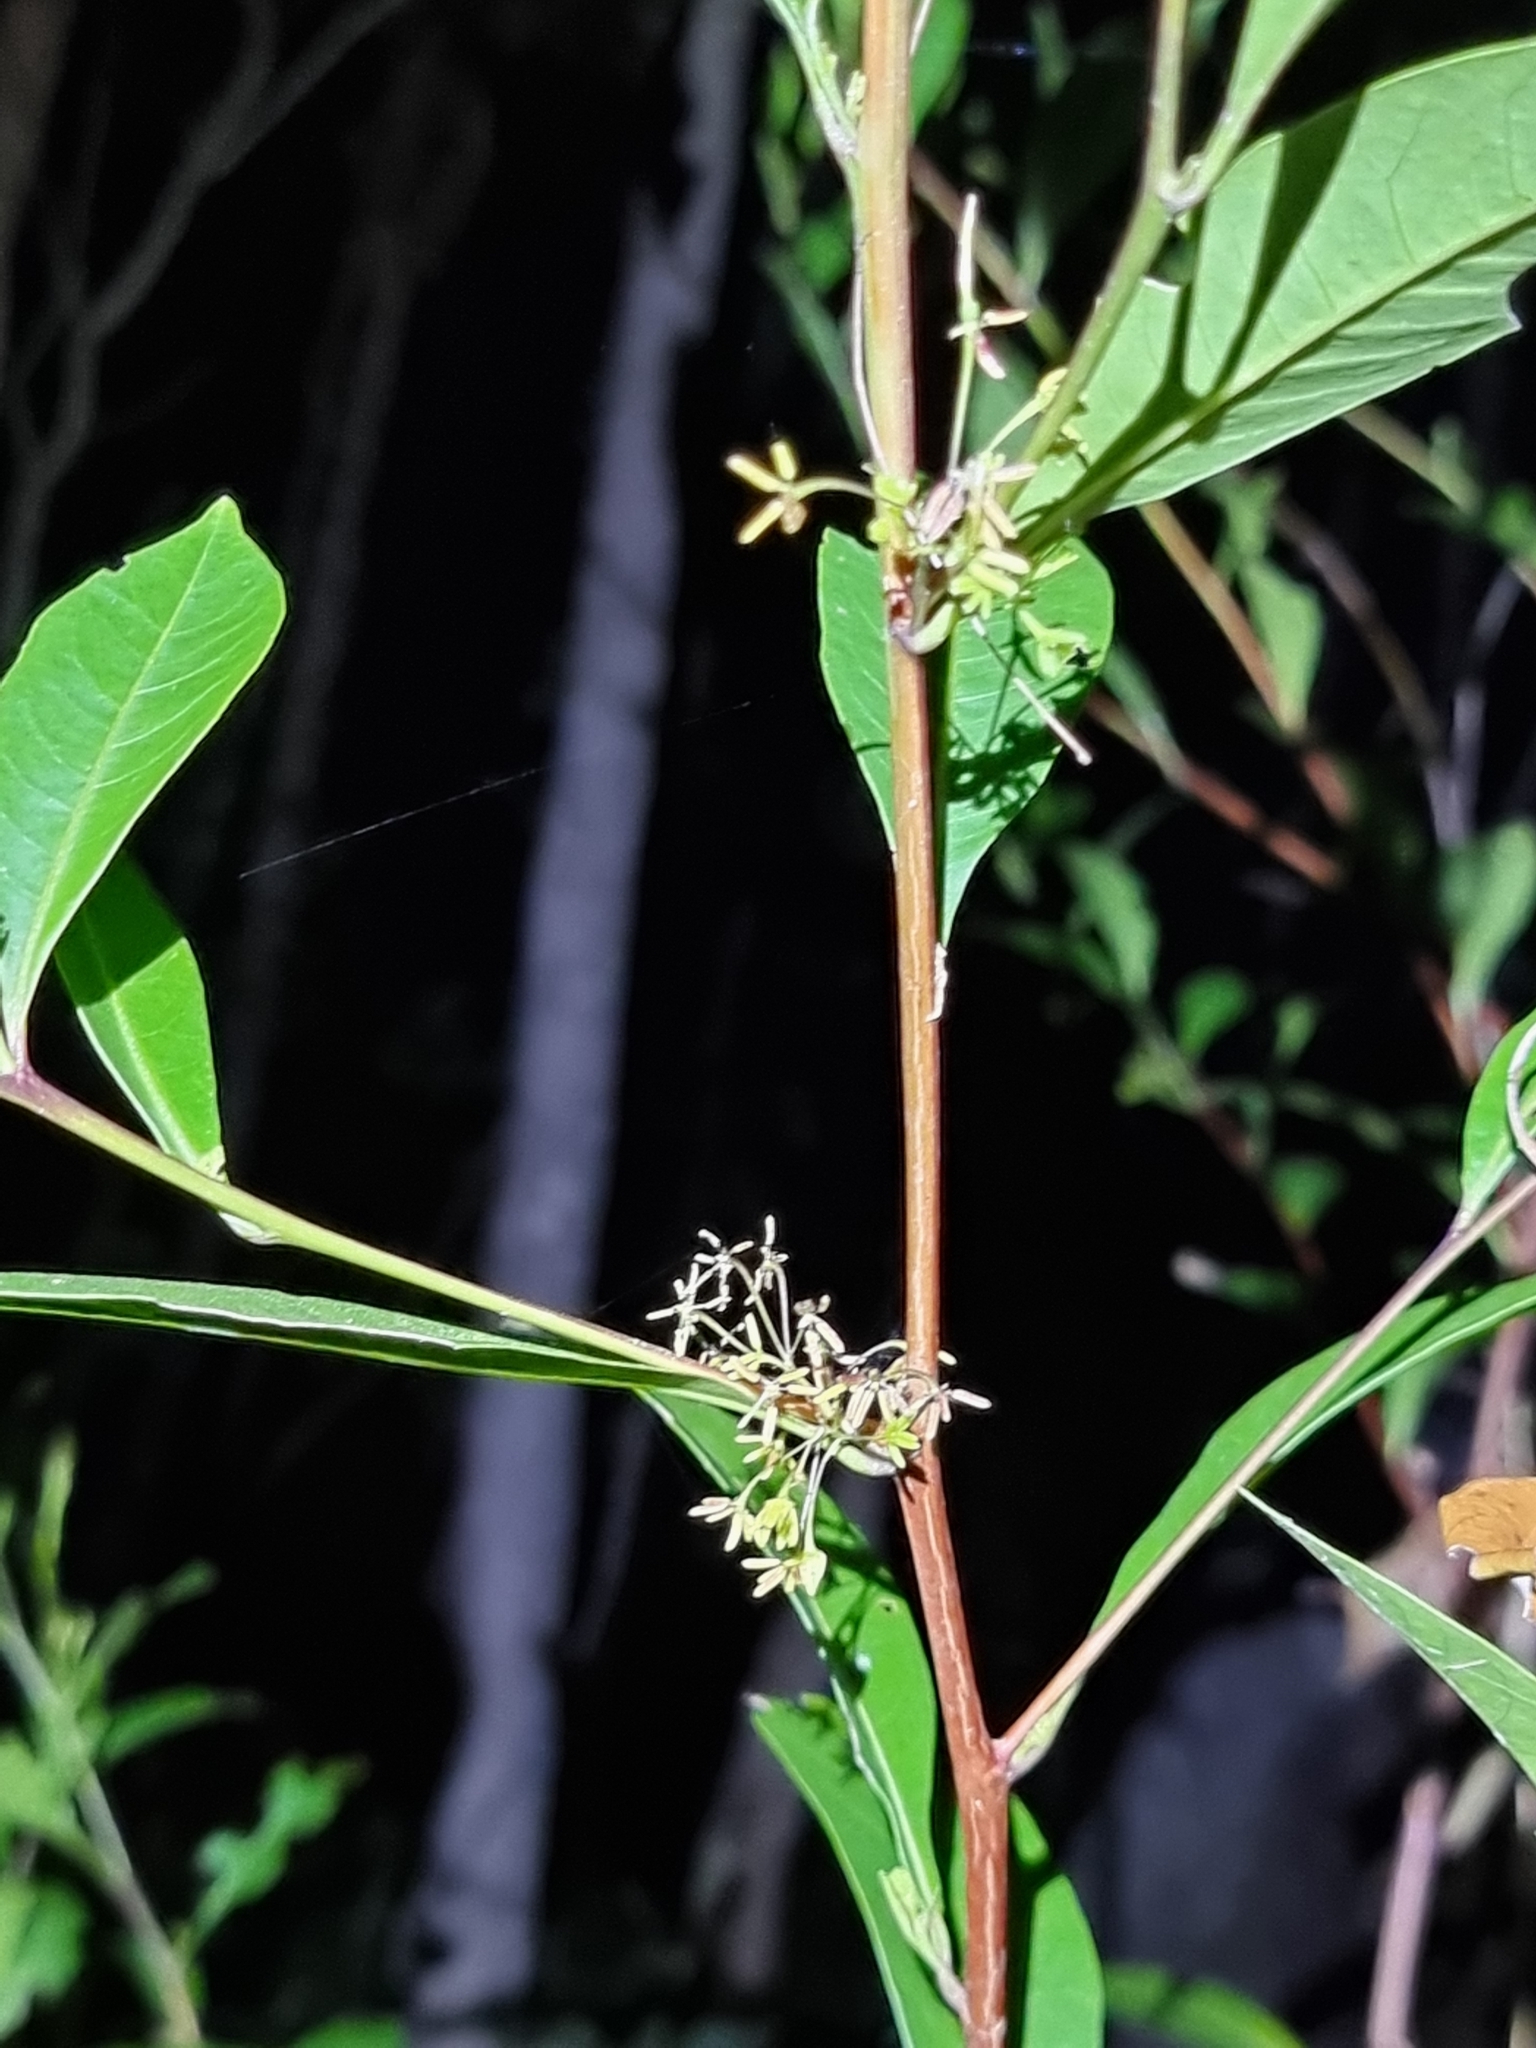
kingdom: Plantae
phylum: Tracheophyta
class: Magnoliopsida
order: Sapindales
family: Sapindaceae
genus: Dodonaea
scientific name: Dodonaea triquetra
